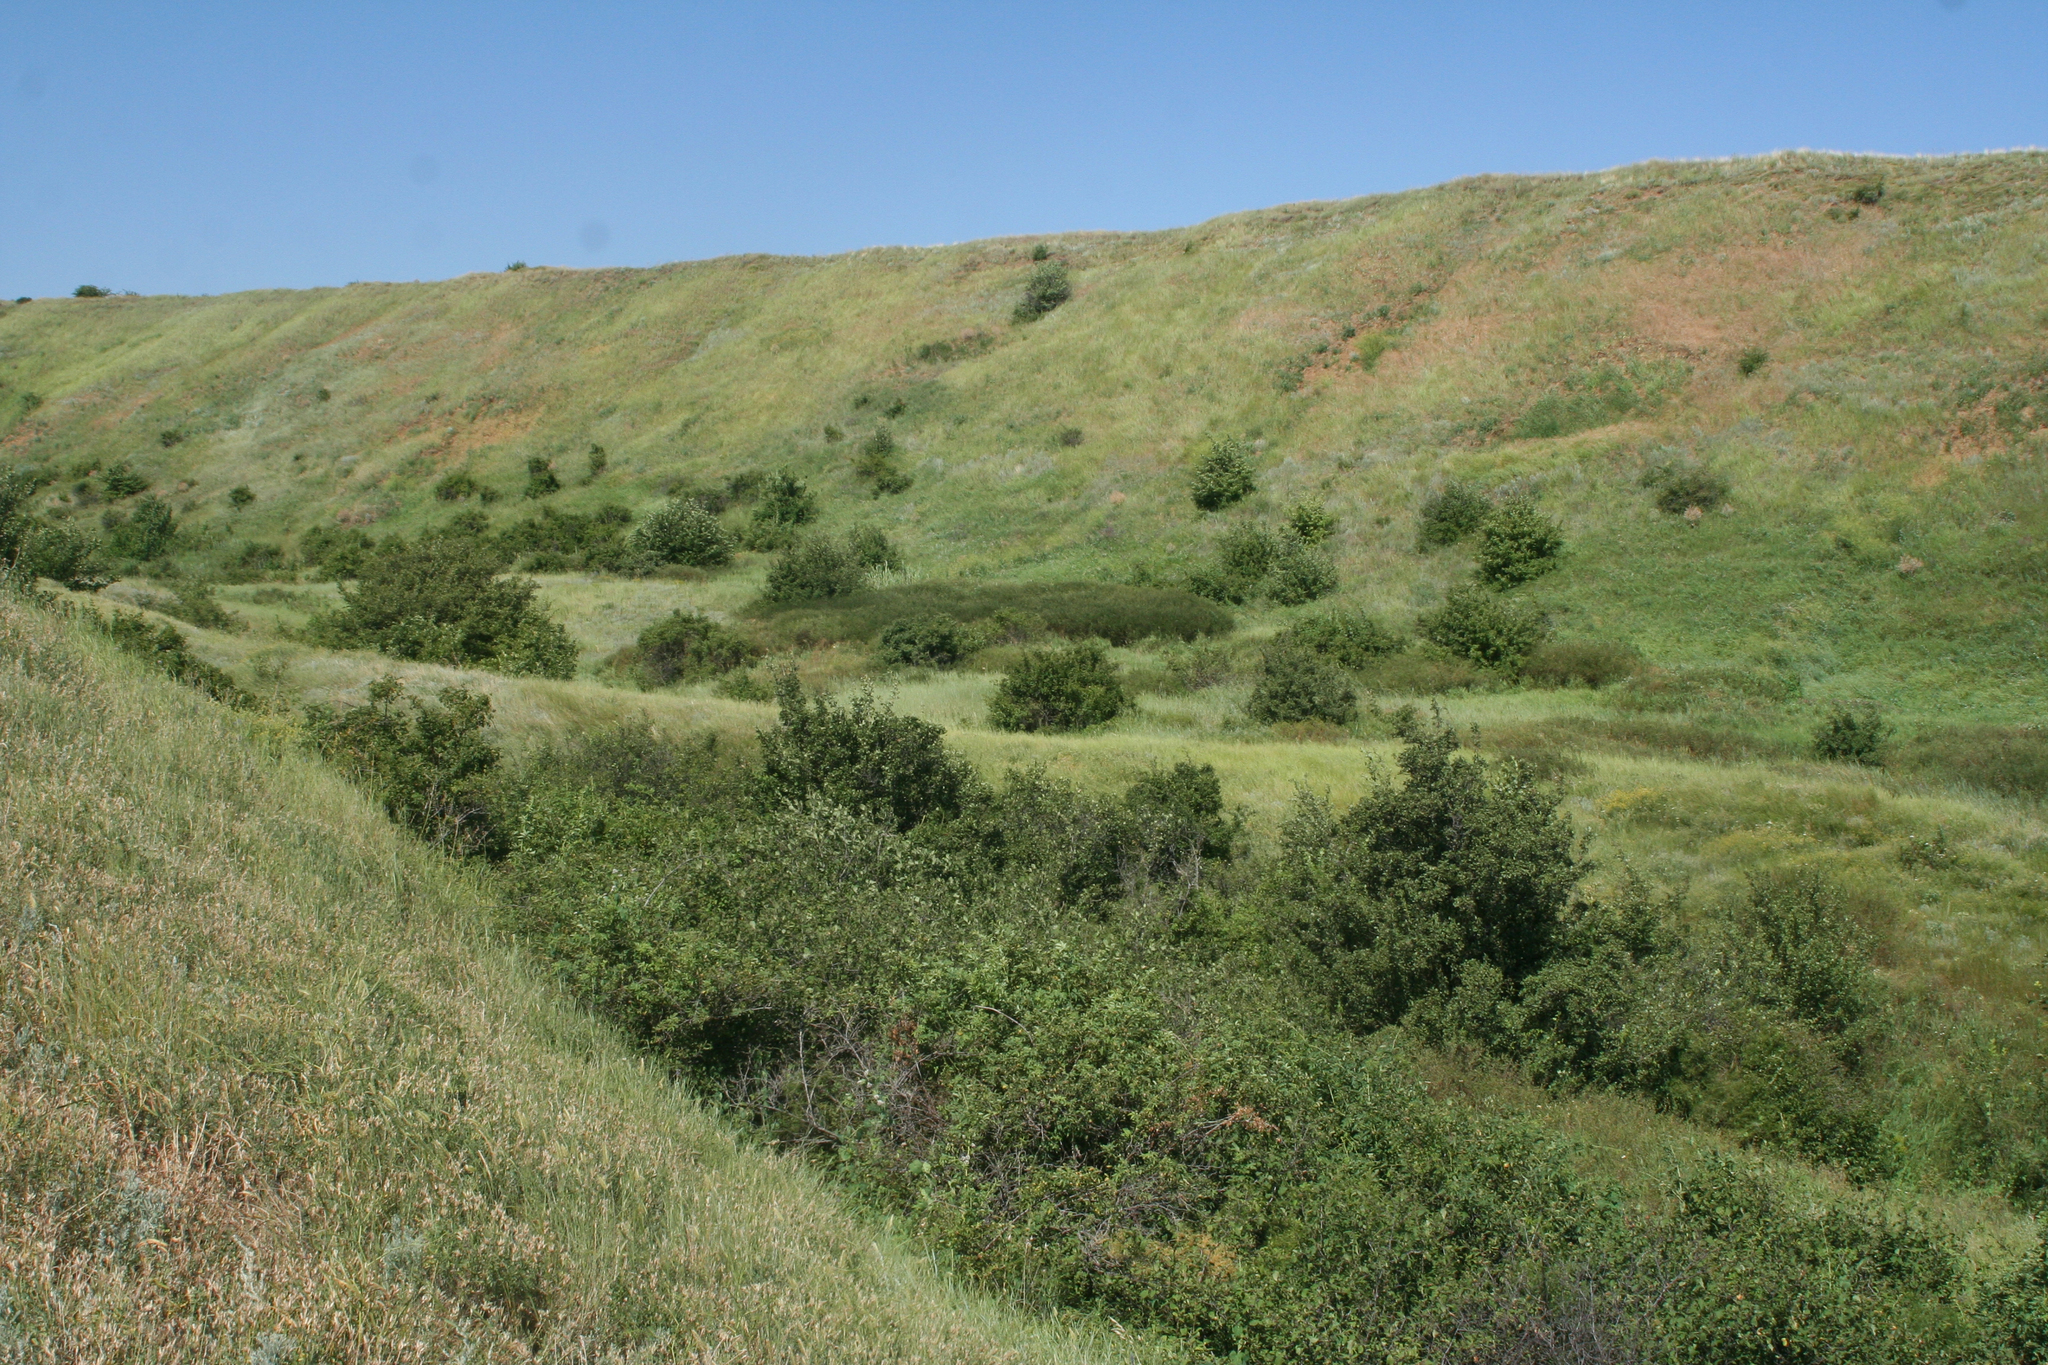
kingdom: Plantae
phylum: Tracheophyta
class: Magnoliopsida
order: Rosales
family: Rosaceae
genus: Prunus
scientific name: Prunus spinosa
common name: Blackthorn
